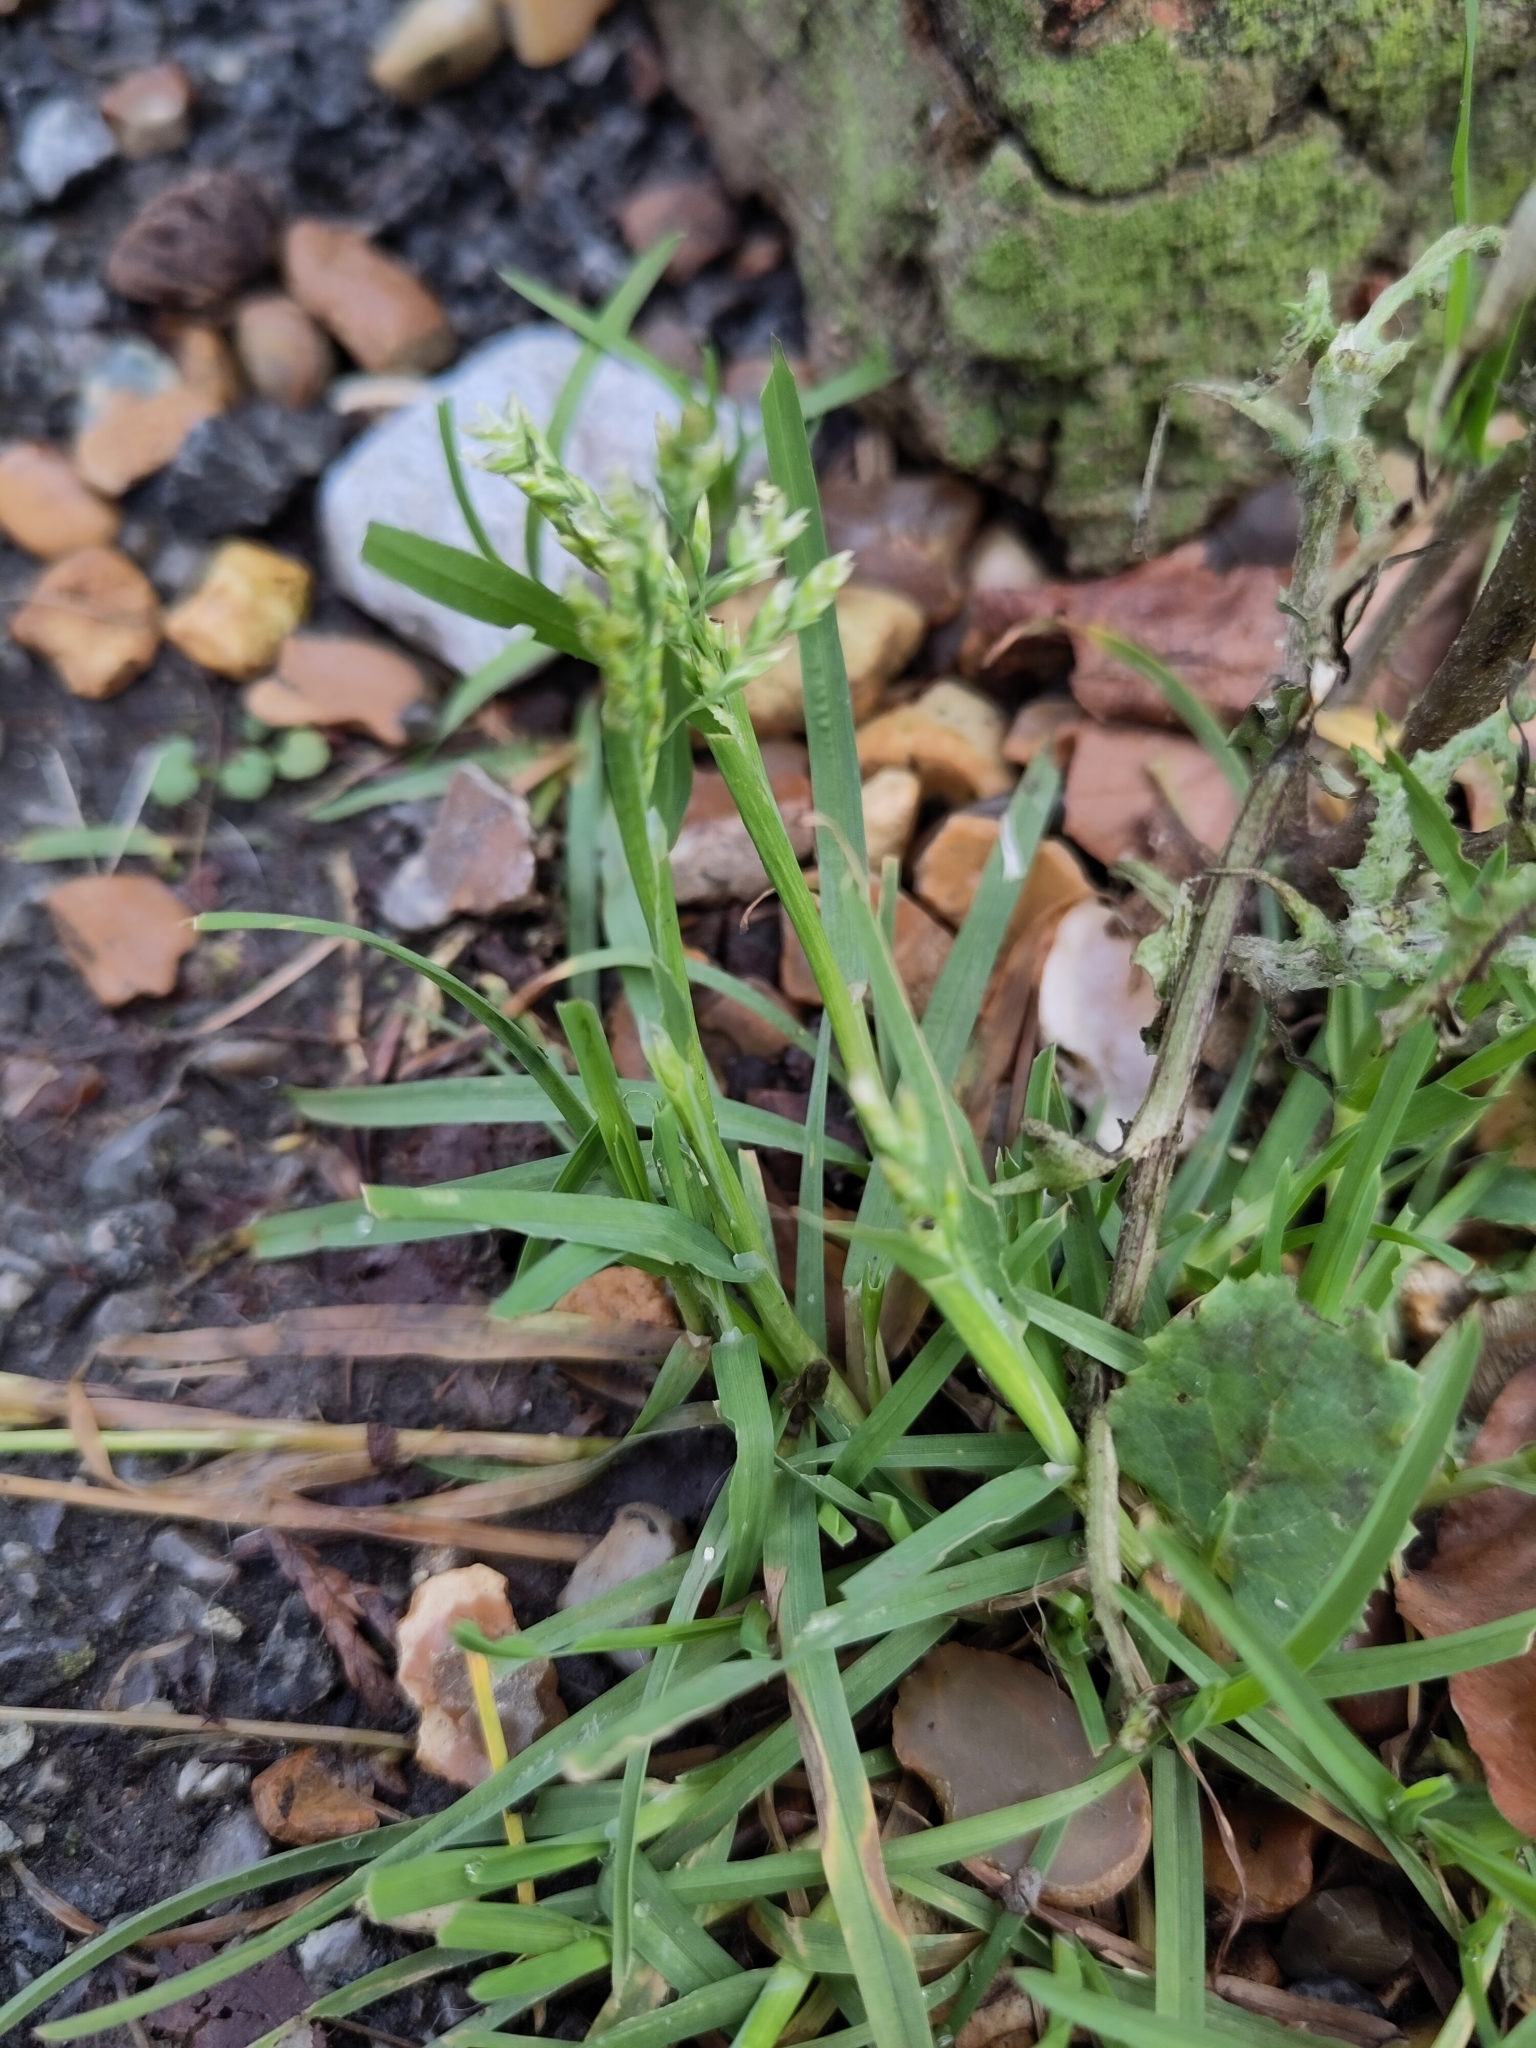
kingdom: Plantae
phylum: Tracheophyta
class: Liliopsida
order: Poales
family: Poaceae
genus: Poa
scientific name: Poa annua
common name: Annual bluegrass
